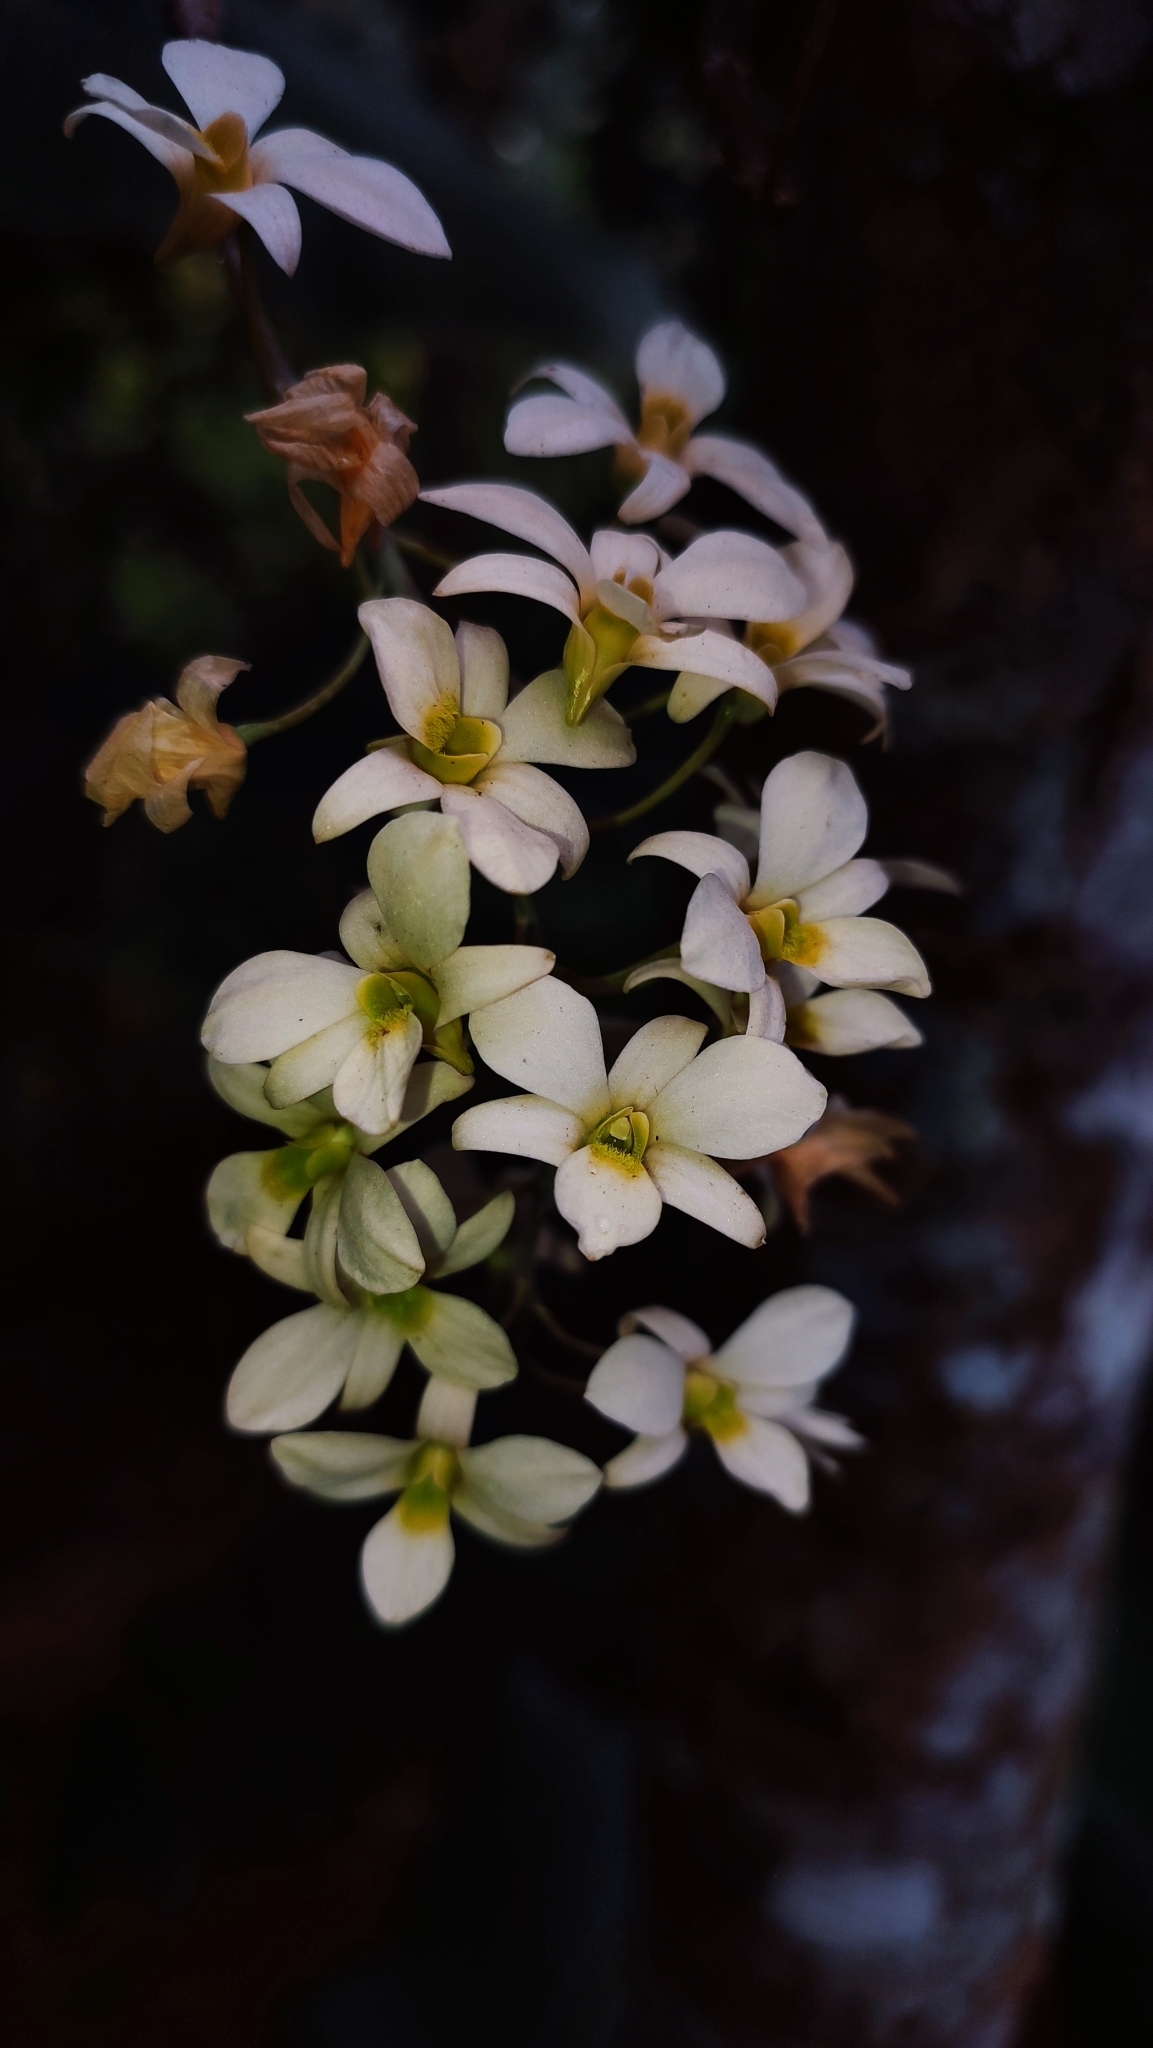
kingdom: Plantae
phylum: Tracheophyta
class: Liliopsida
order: Asparagales
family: Orchidaceae
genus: Dendrobium
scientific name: Dendrobium ovatum
